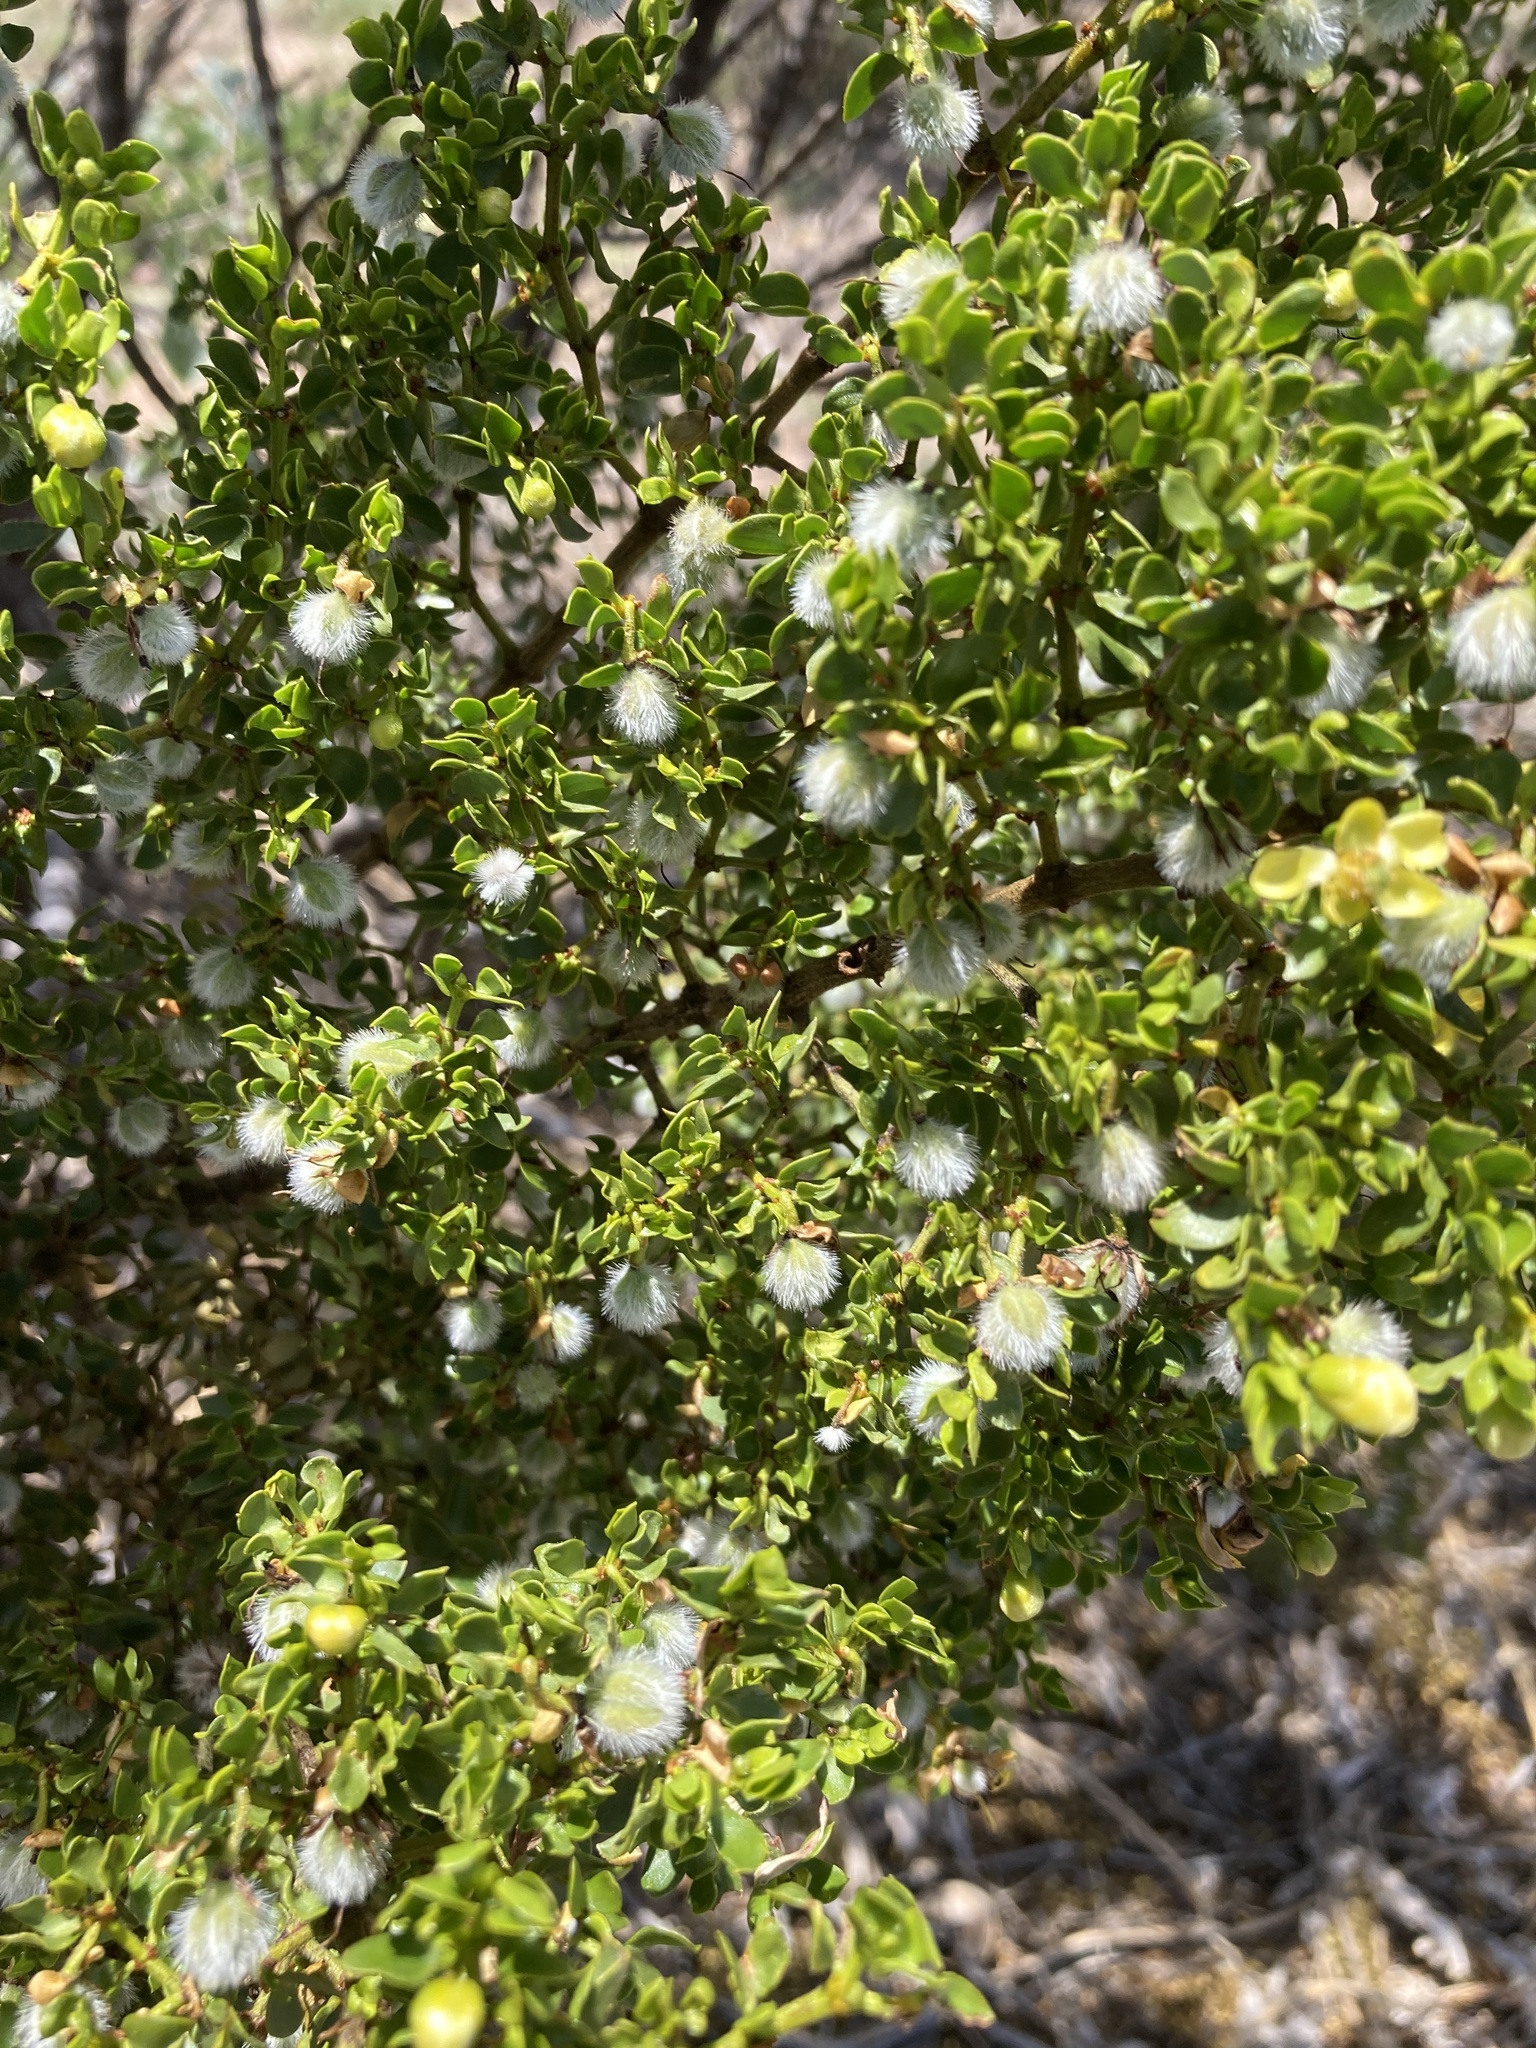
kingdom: Plantae
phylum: Tracheophyta
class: Magnoliopsida
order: Zygophyllales
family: Zygophyllaceae
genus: Larrea
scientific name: Larrea tridentata
